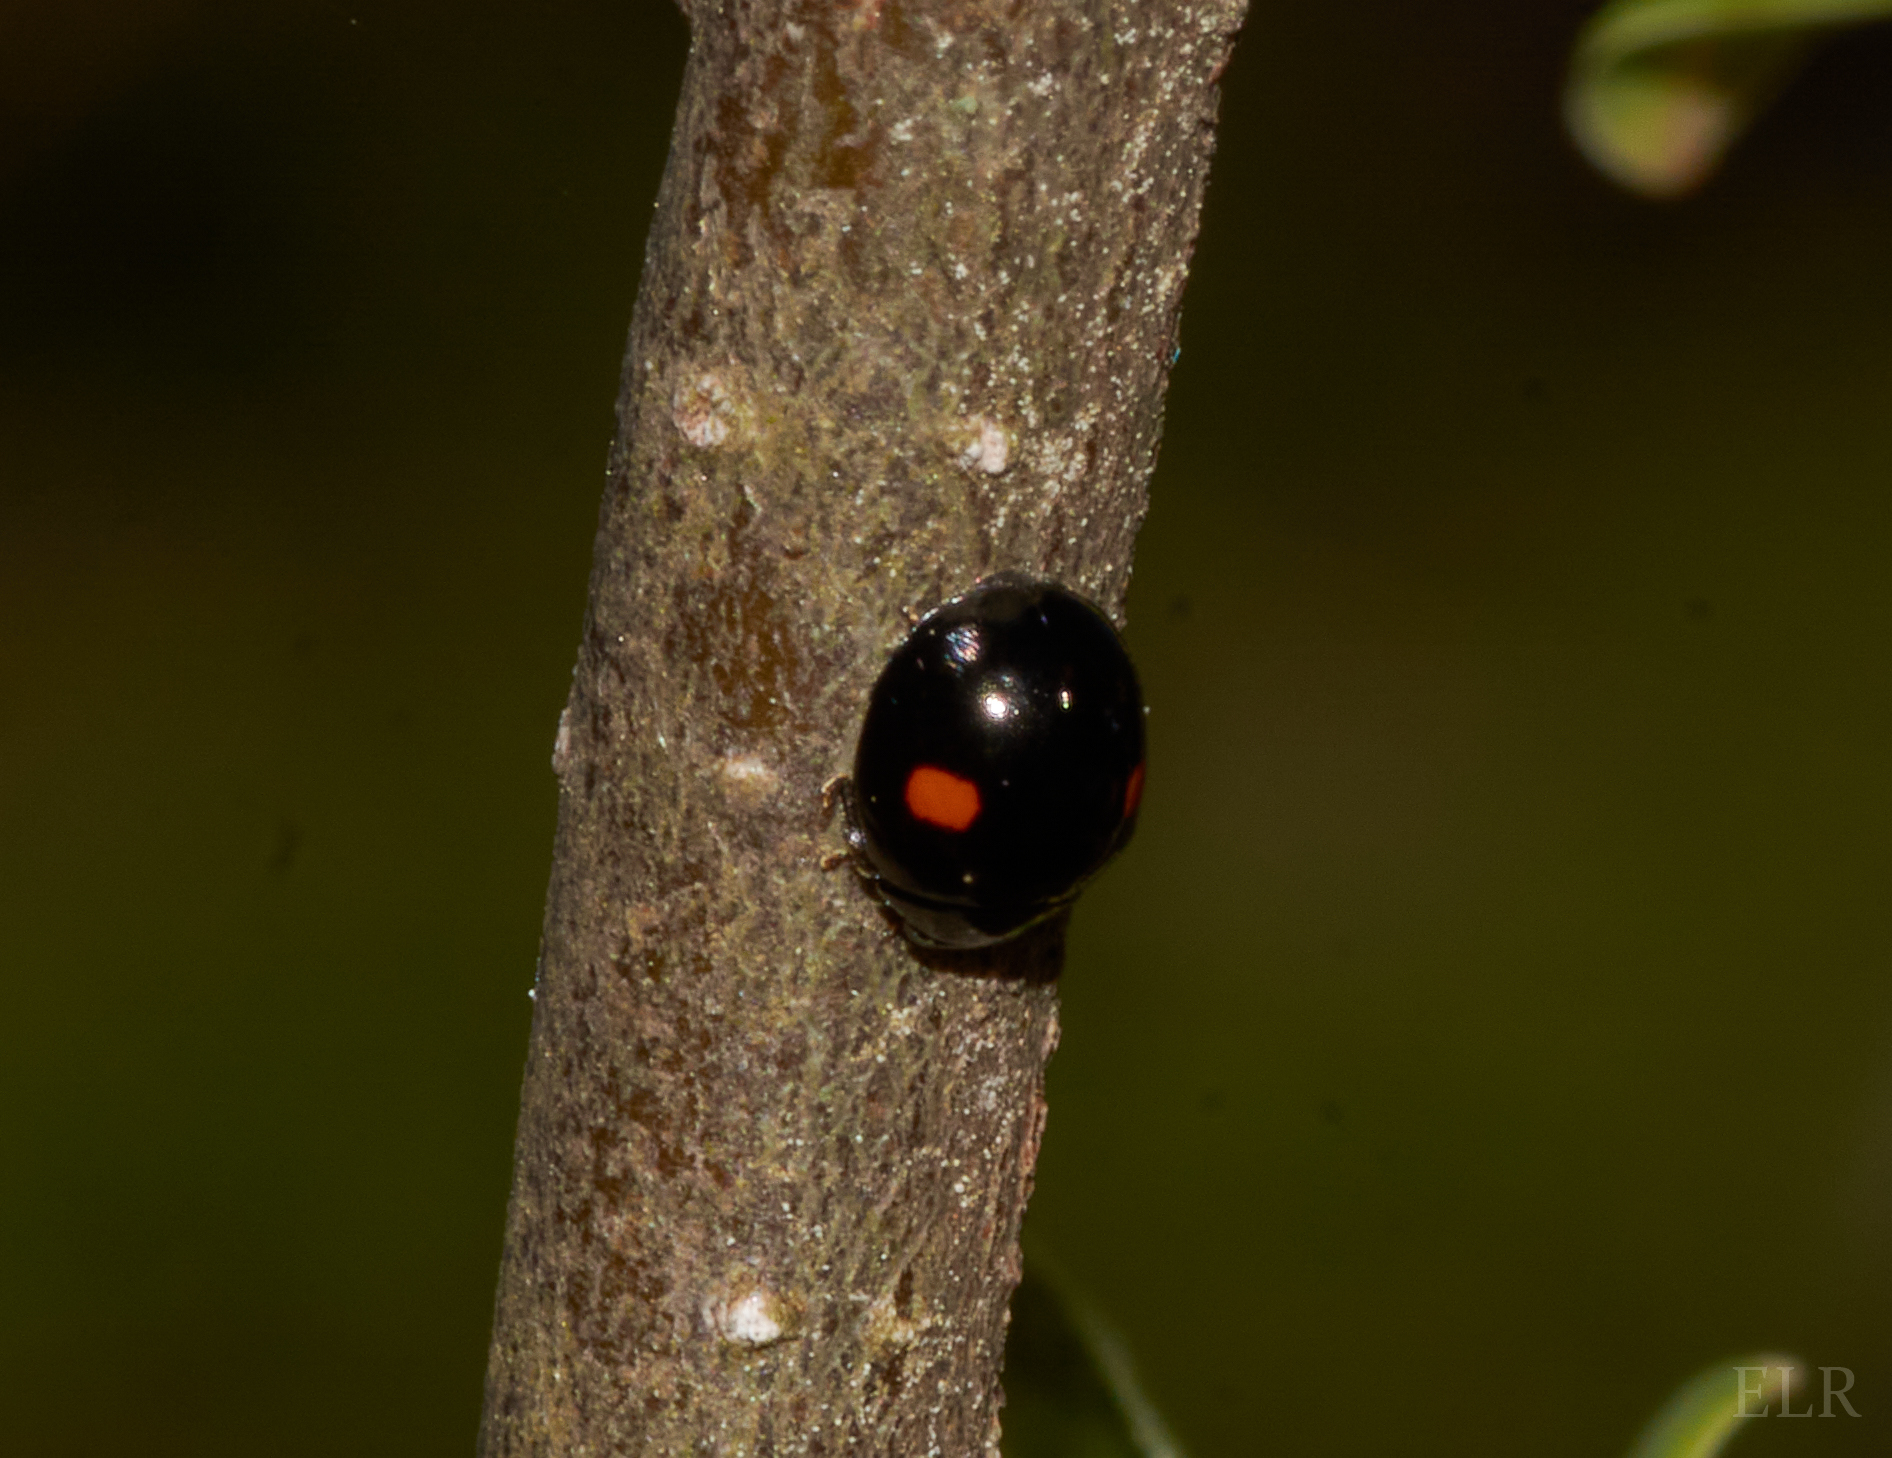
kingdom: Animalia
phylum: Arthropoda
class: Insecta
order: Coleoptera
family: Coccinellidae
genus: Chilocorus
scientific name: Chilocorus stigma
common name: Twicestabbed lady beetle
